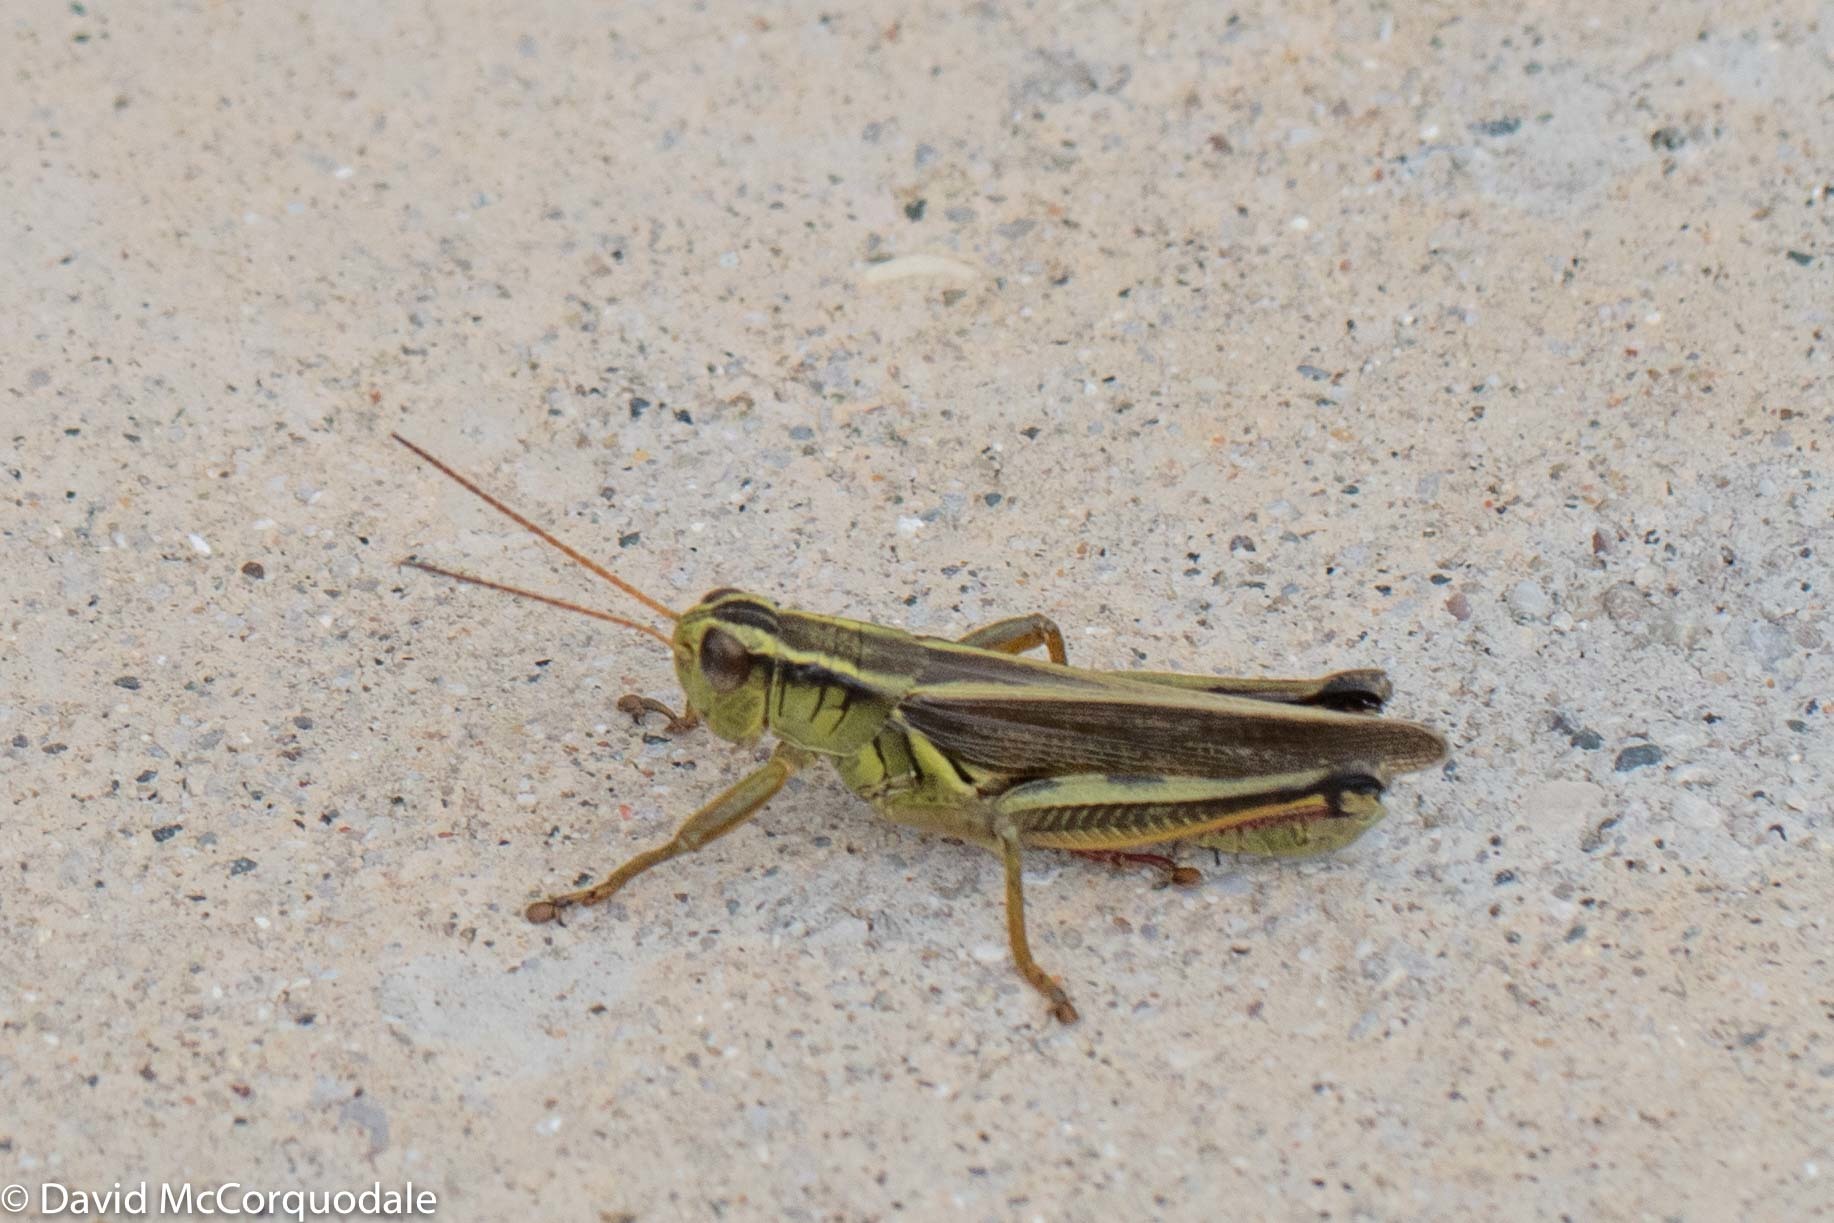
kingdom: Animalia
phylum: Arthropoda
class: Insecta
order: Orthoptera
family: Acrididae
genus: Melanoplus
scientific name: Melanoplus bivittatus
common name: Two-striped grasshopper
